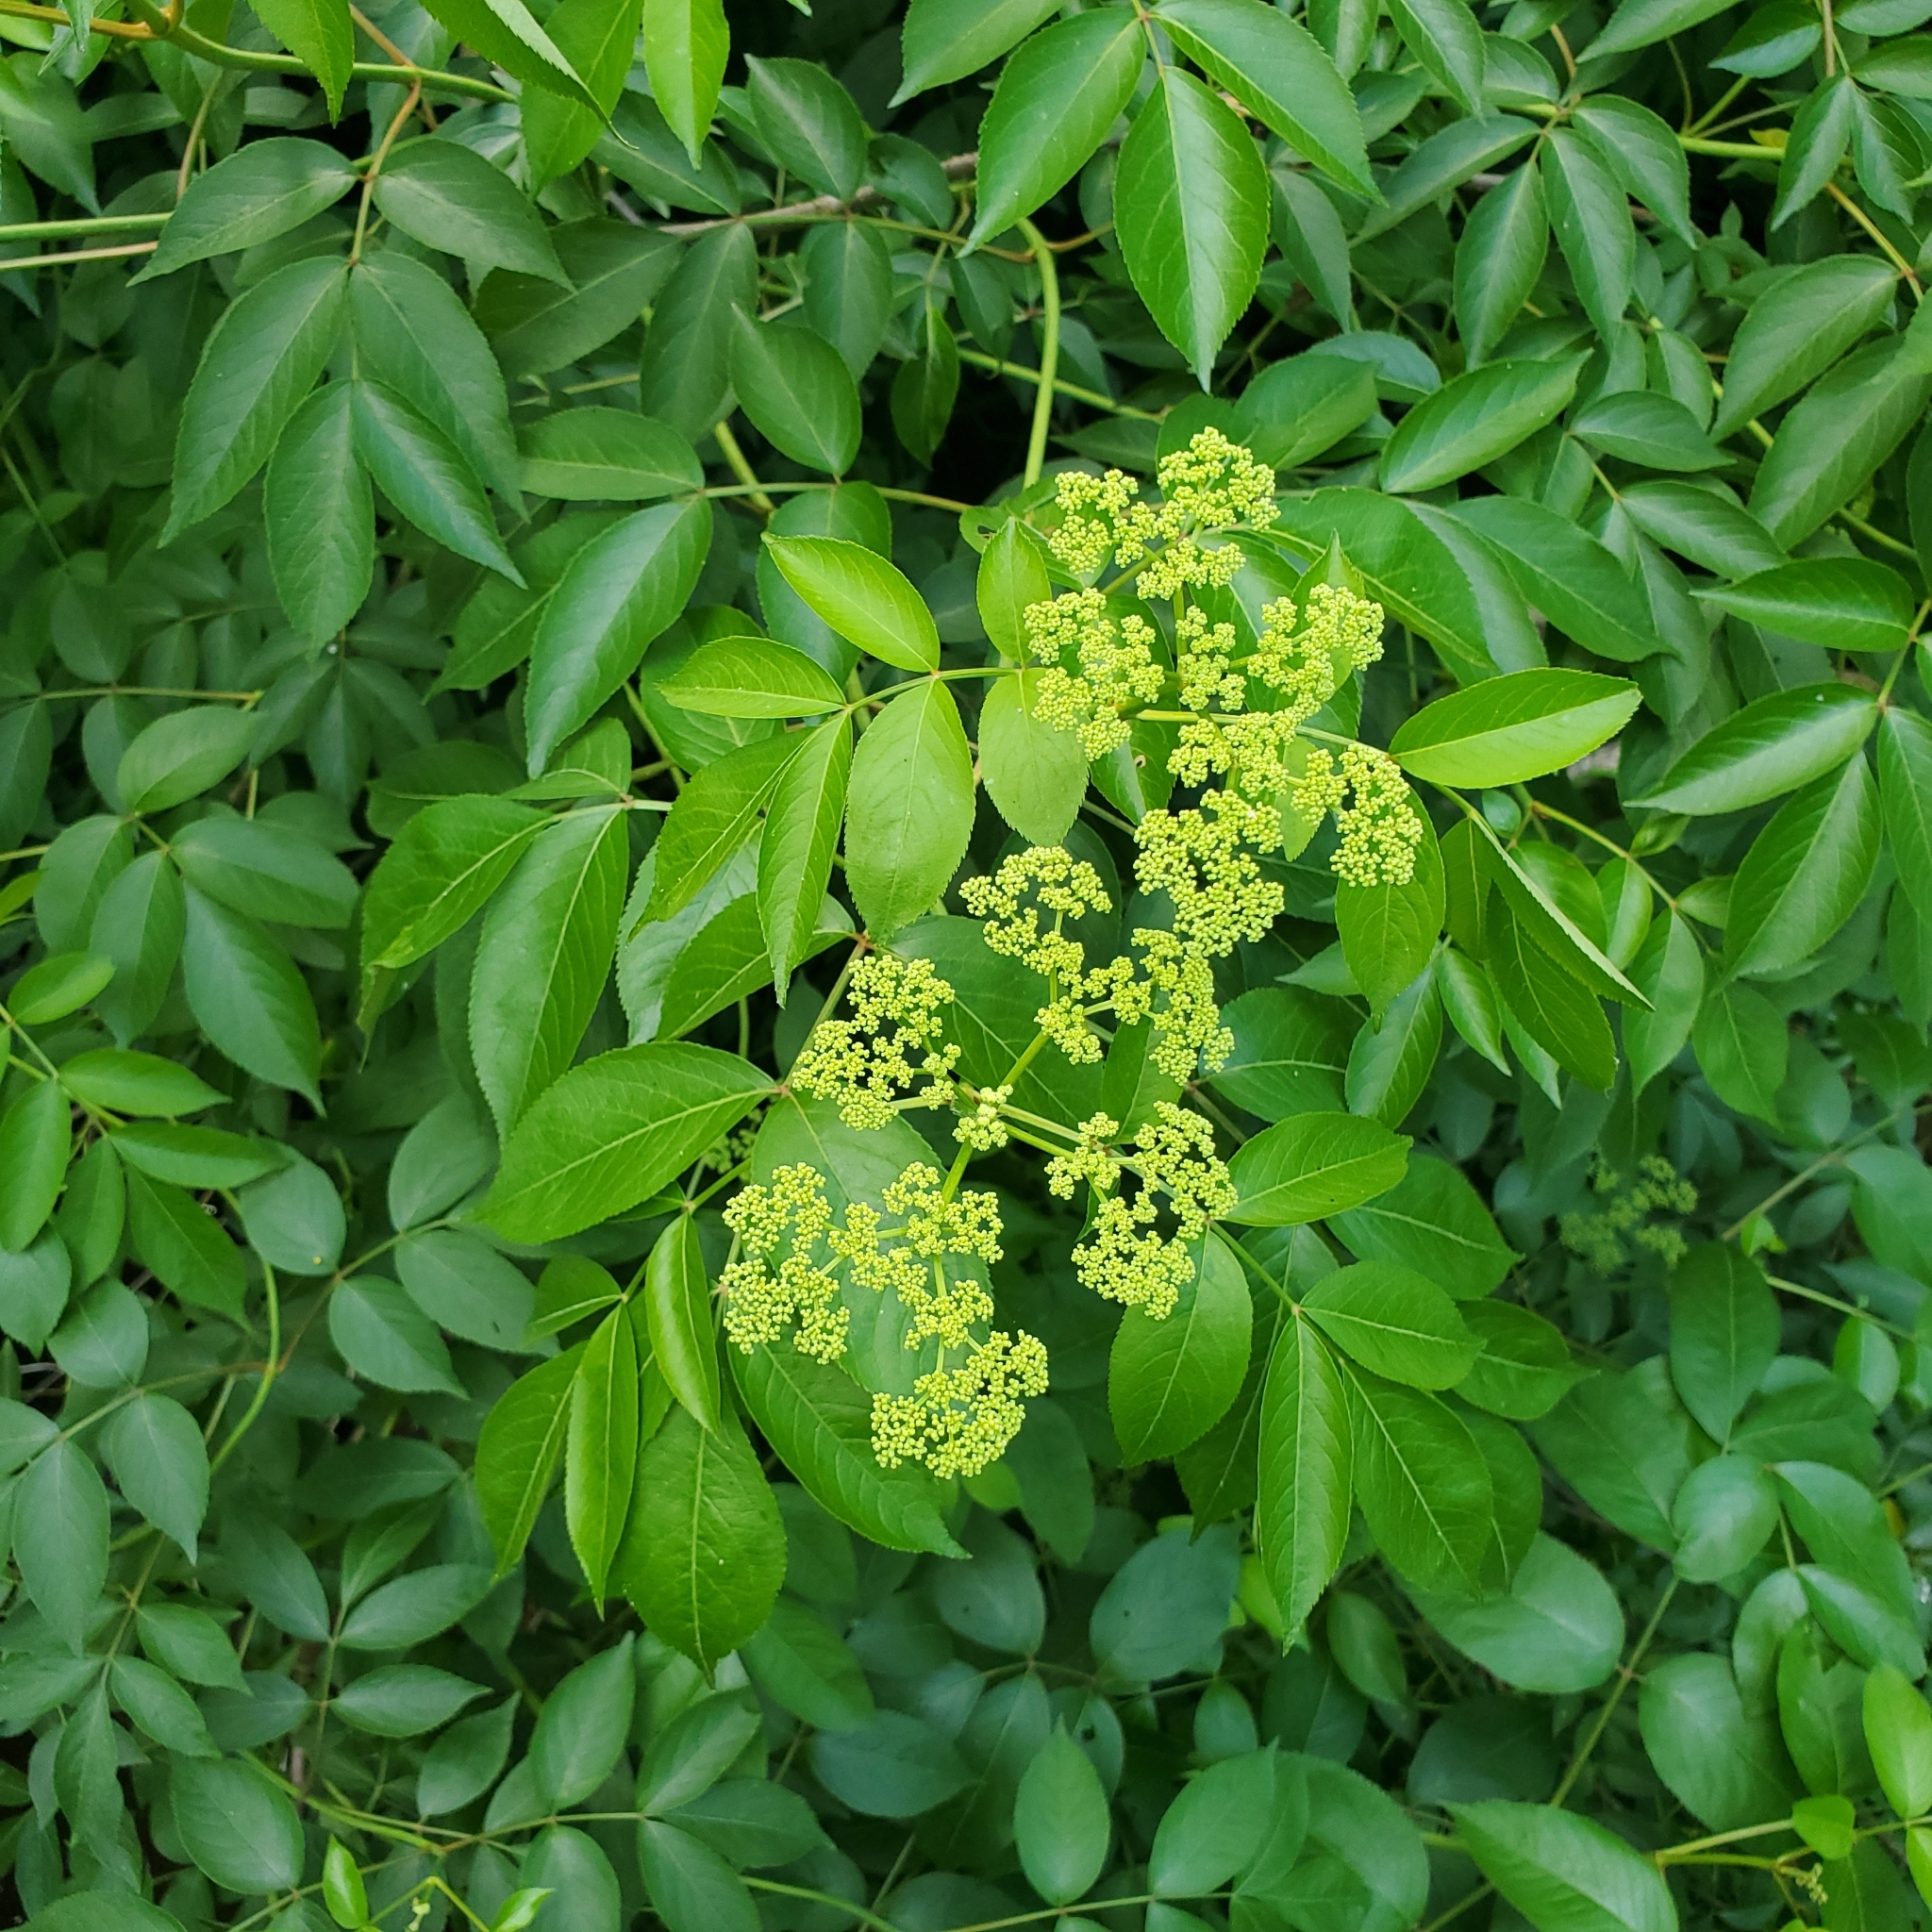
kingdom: Plantae
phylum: Tracheophyta
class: Magnoliopsida
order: Dipsacales
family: Viburnaceae
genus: Sambucus
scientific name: Sambucus canadensis
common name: American elder
